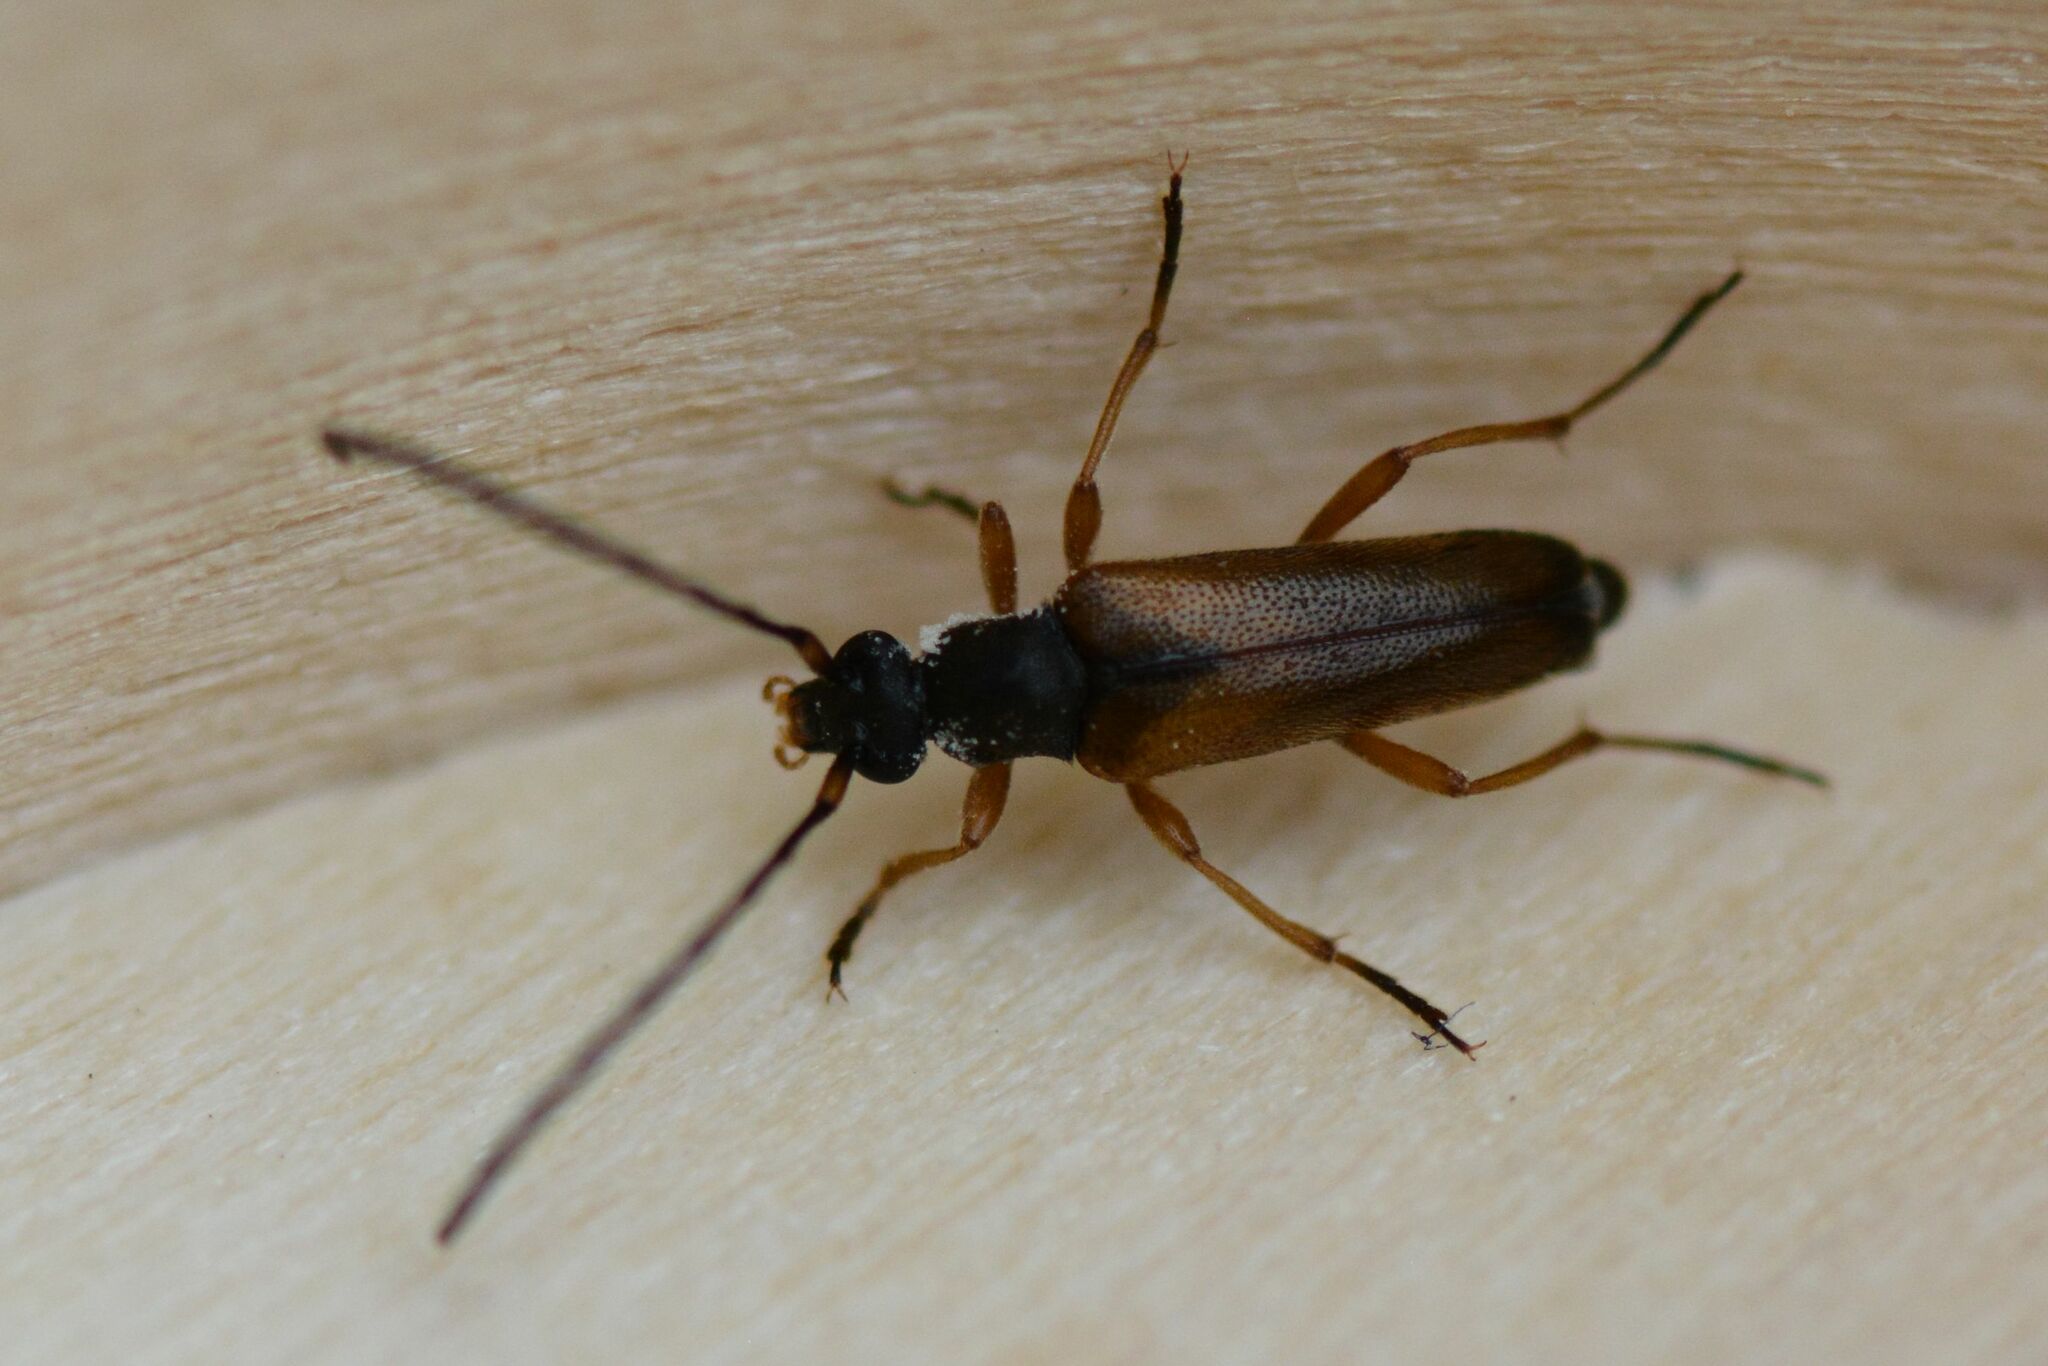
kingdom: Animalia
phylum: Arthropoda
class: Insecta
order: Coleoptera
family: Cerambycidae
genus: Alosterna
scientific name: Alosterna tabacicolor
